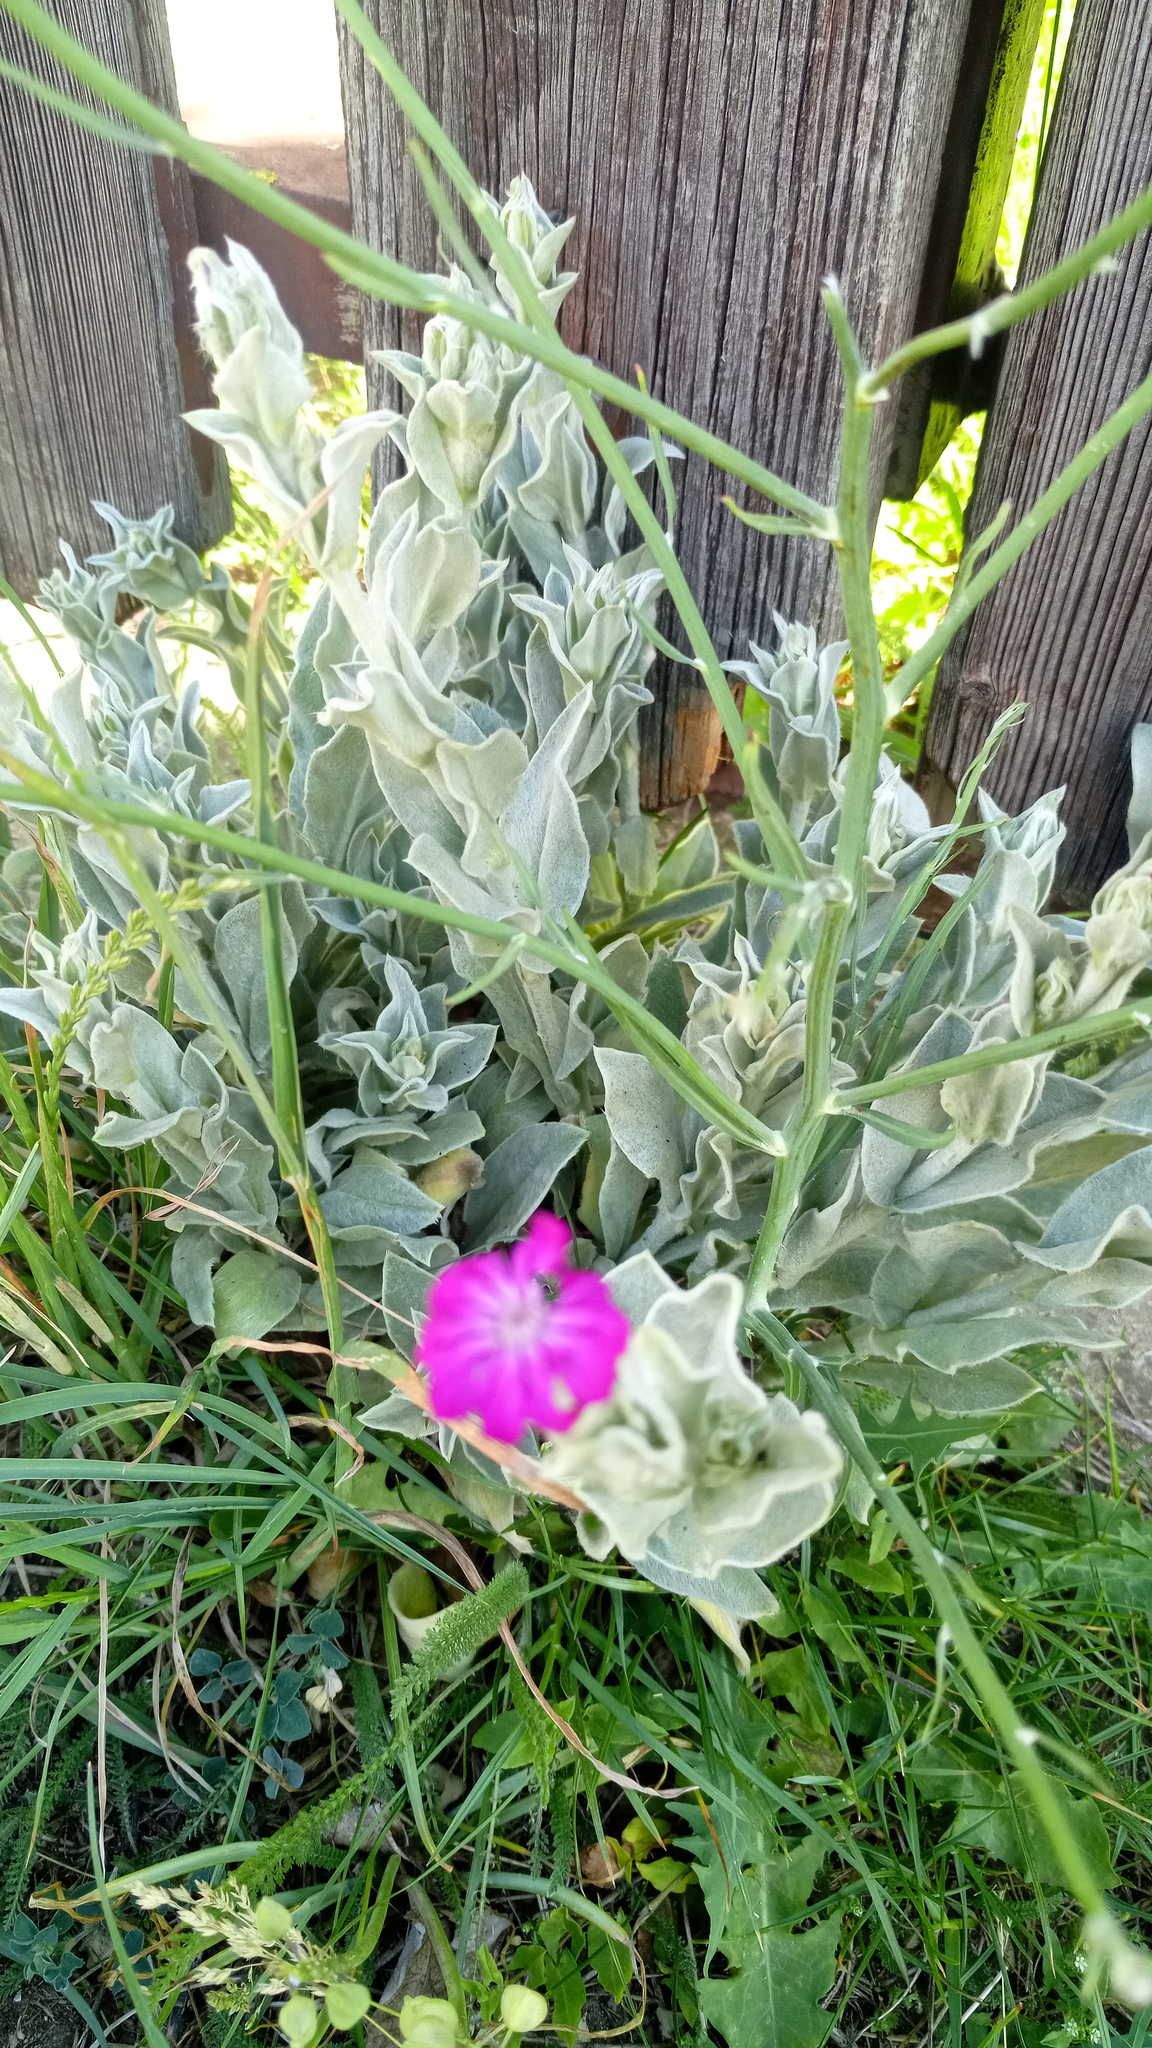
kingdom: Plantae
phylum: Tracheophyta
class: Magnoliopsida
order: Caryophyllales
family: Caryophyllaceae
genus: Silene
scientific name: Silene coronaria
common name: Rose campion
